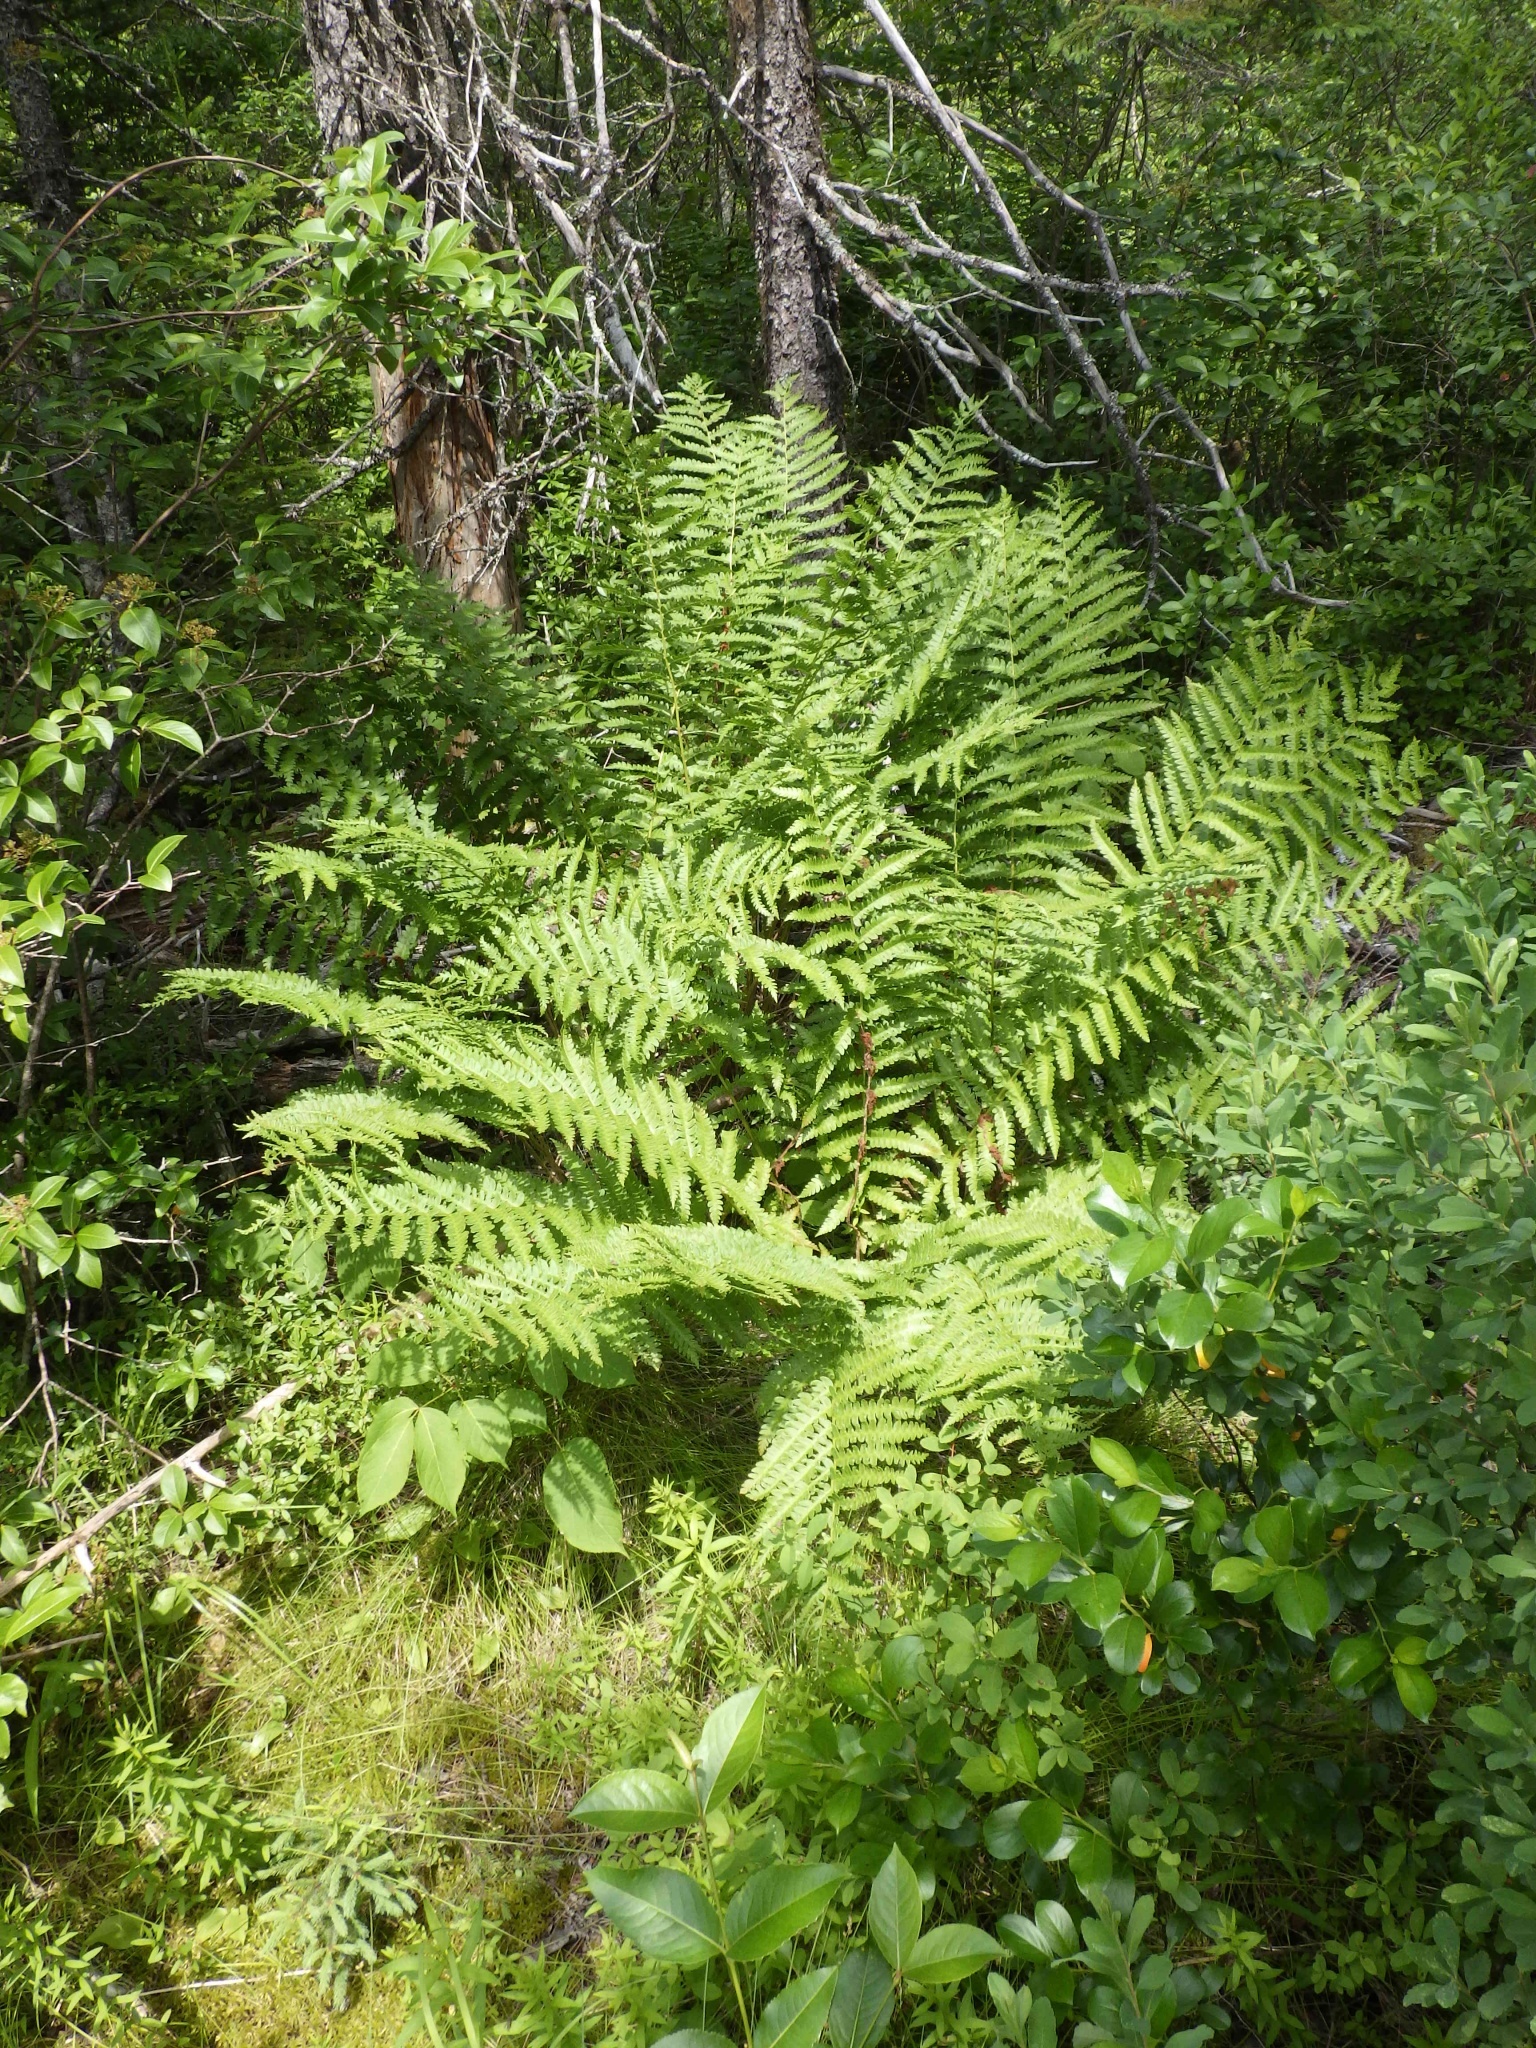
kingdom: Plantae
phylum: Tracheophyta
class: Polypodiopsida
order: Osmundales
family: Osmundaceae
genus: Osmundastrum
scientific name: Osmundastrum cinnamomeum
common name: Cinnamon fern
